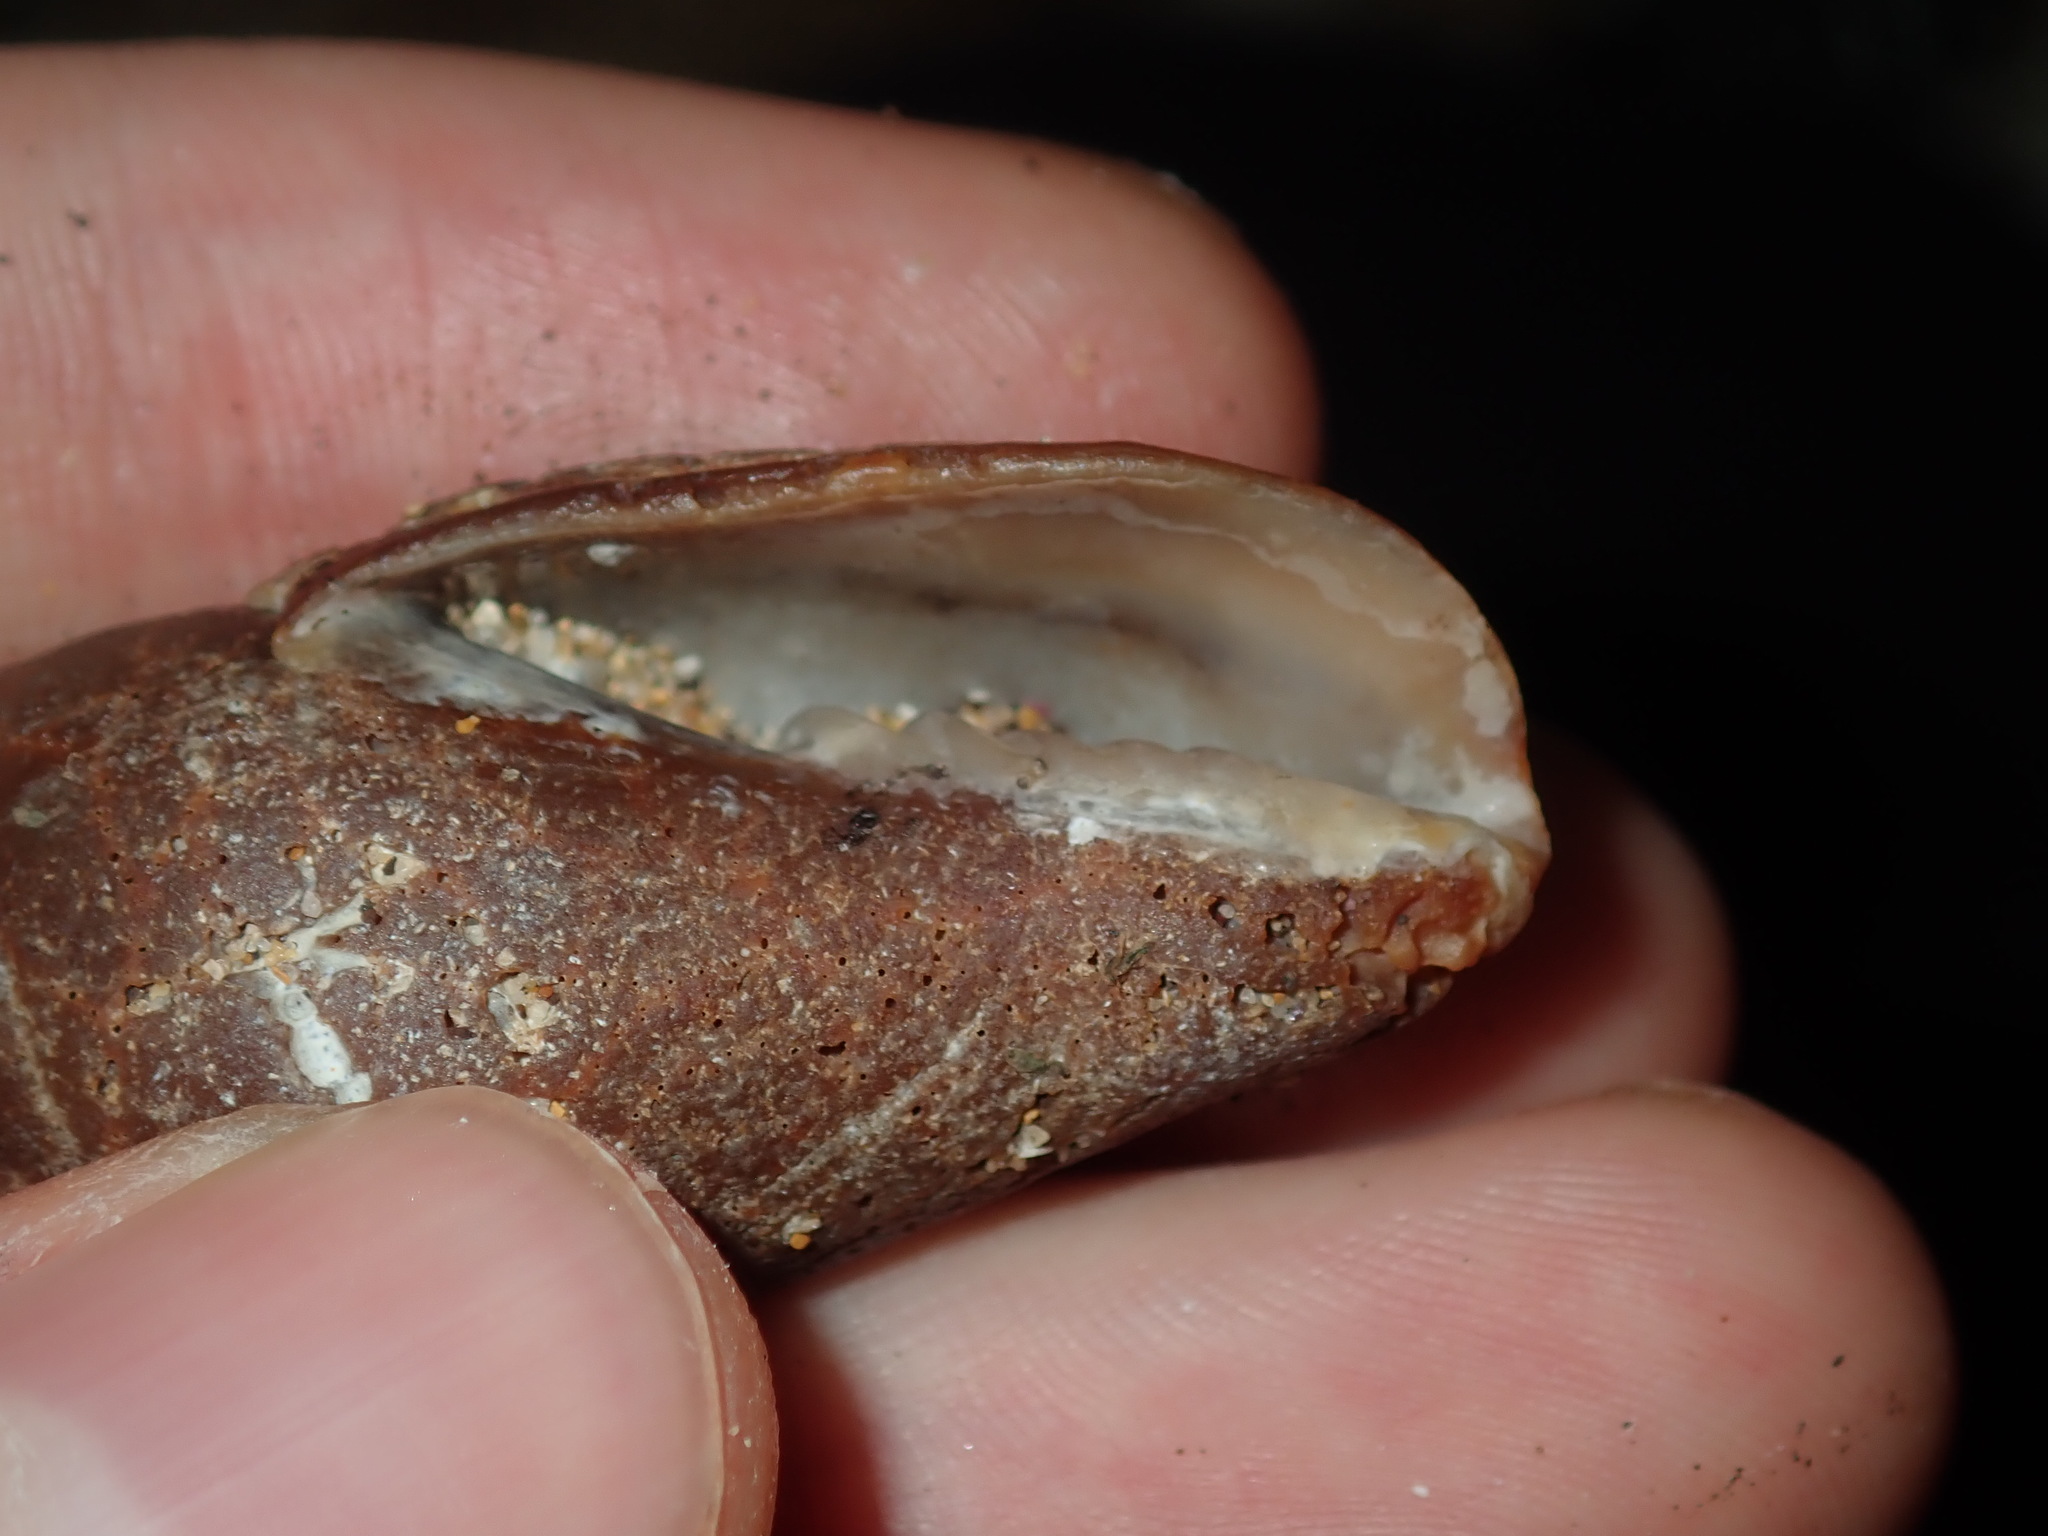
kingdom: Animalia
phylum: Mollusca
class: Gastropoda
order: Neogastropoda
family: Mitridae
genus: Isara
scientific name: Isara carbonaria
